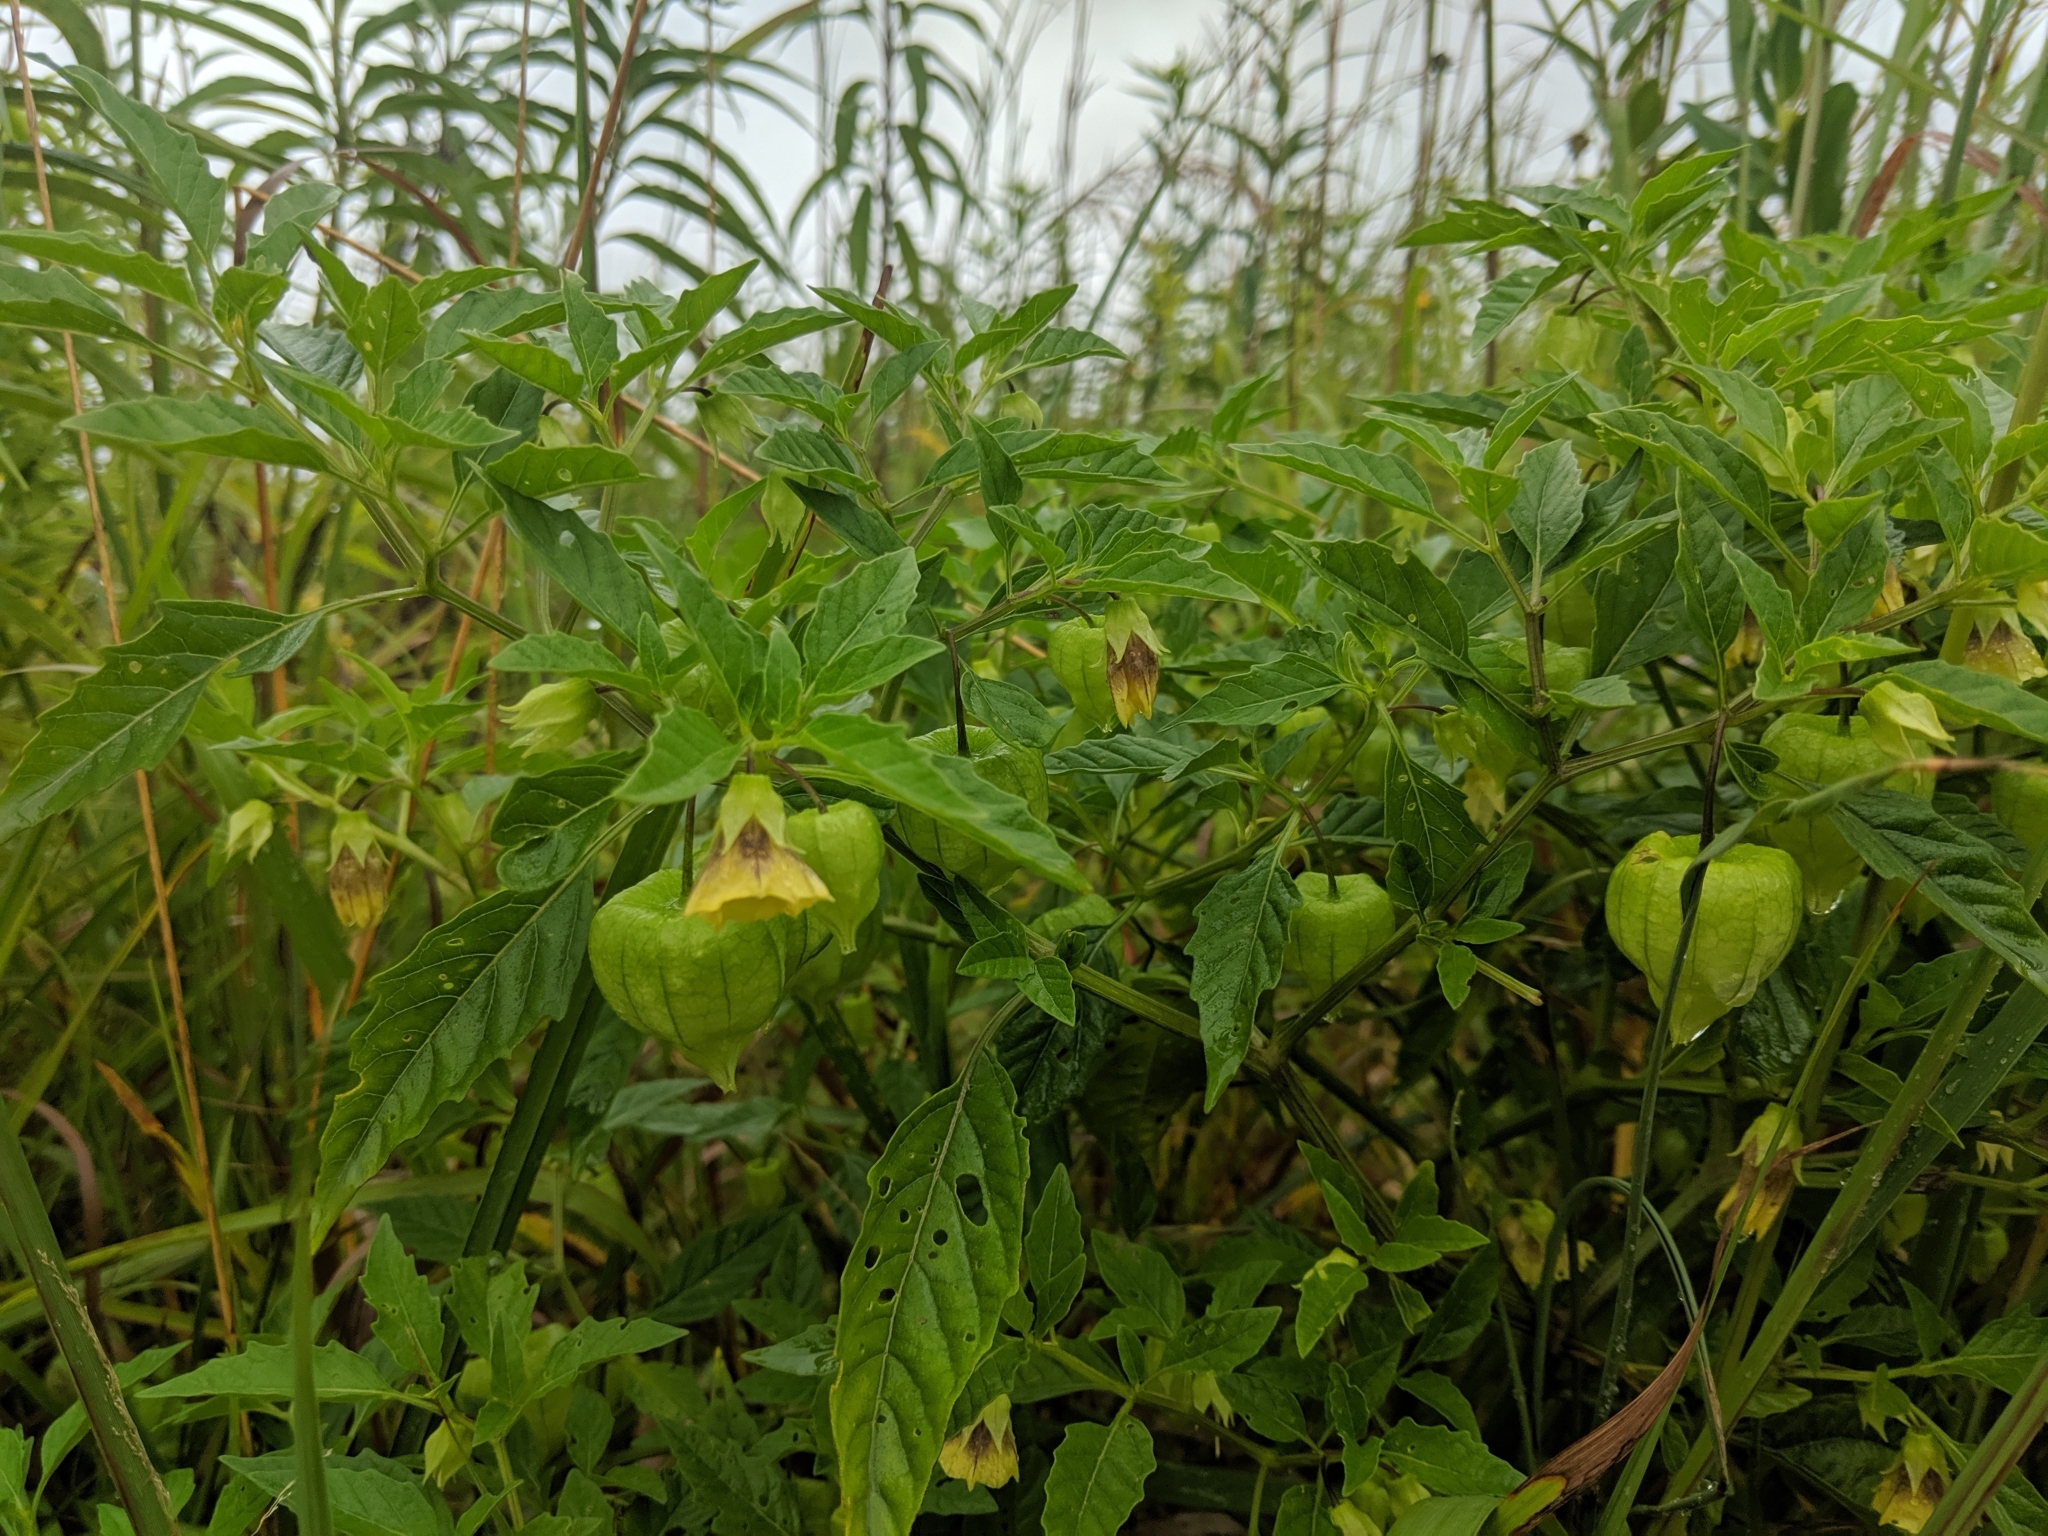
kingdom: Plantae
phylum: Tracheophyta
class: Magnoliopsida
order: Solanales
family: Solanaceae
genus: Physalis
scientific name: Physalis longifolia
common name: Common ground-cherry
